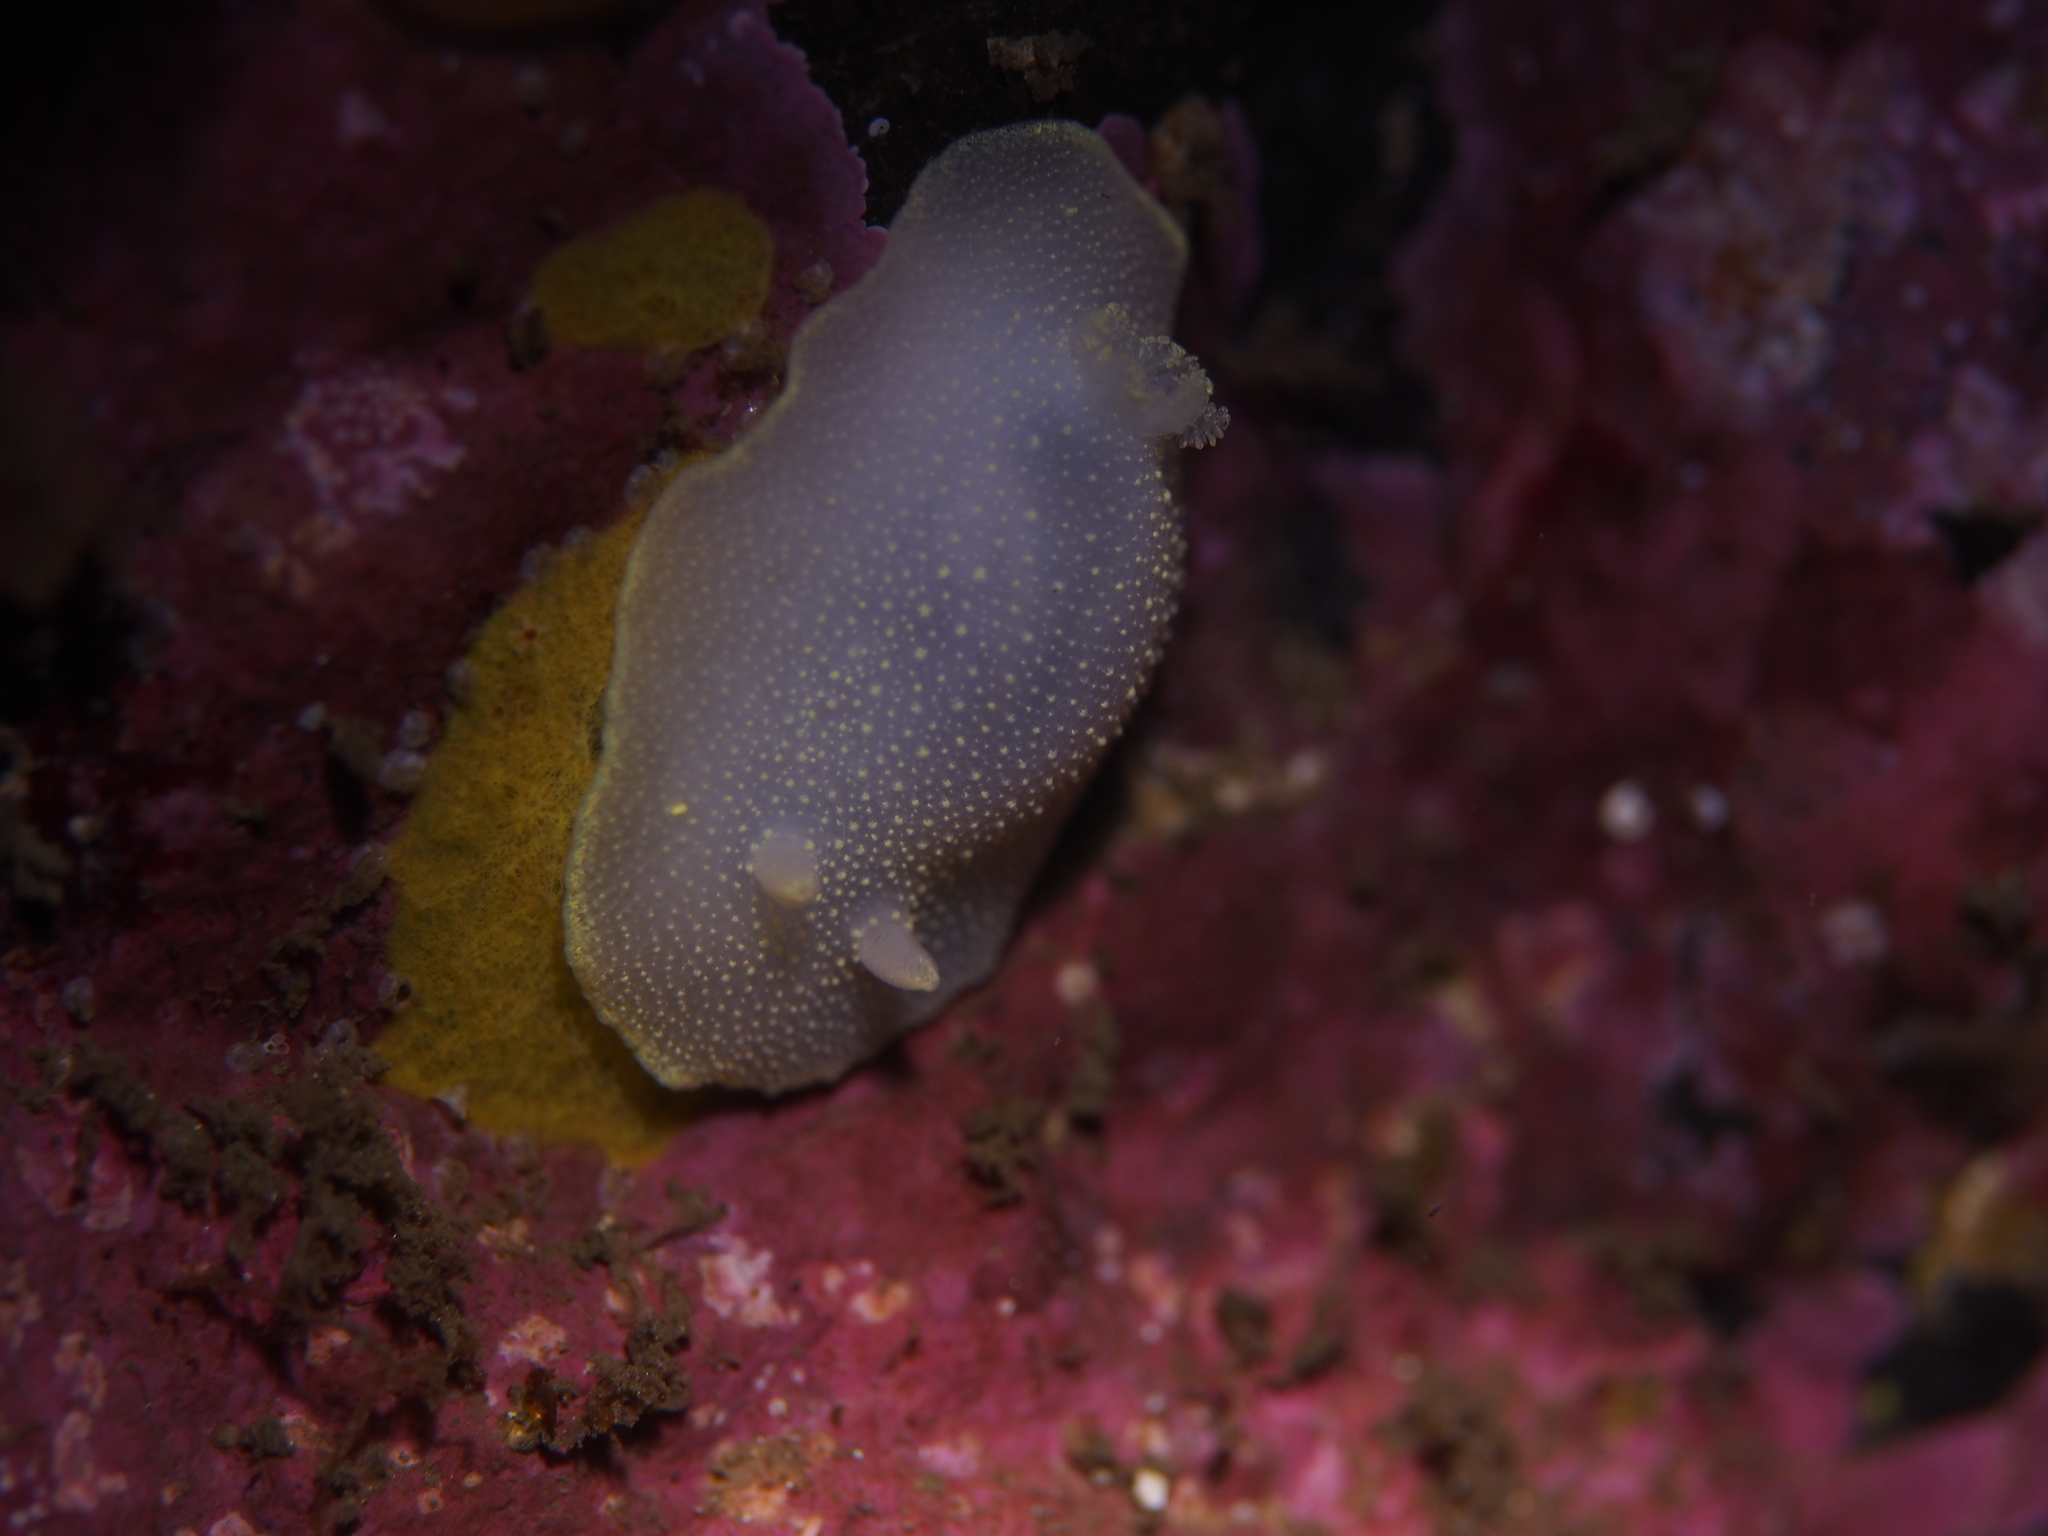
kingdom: Animalia
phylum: Mollusca
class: Gastropoda
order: Nudibranchia
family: Cadlinidae
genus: Cadlina
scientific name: Cadlina laevis
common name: White atlantic cadlina
